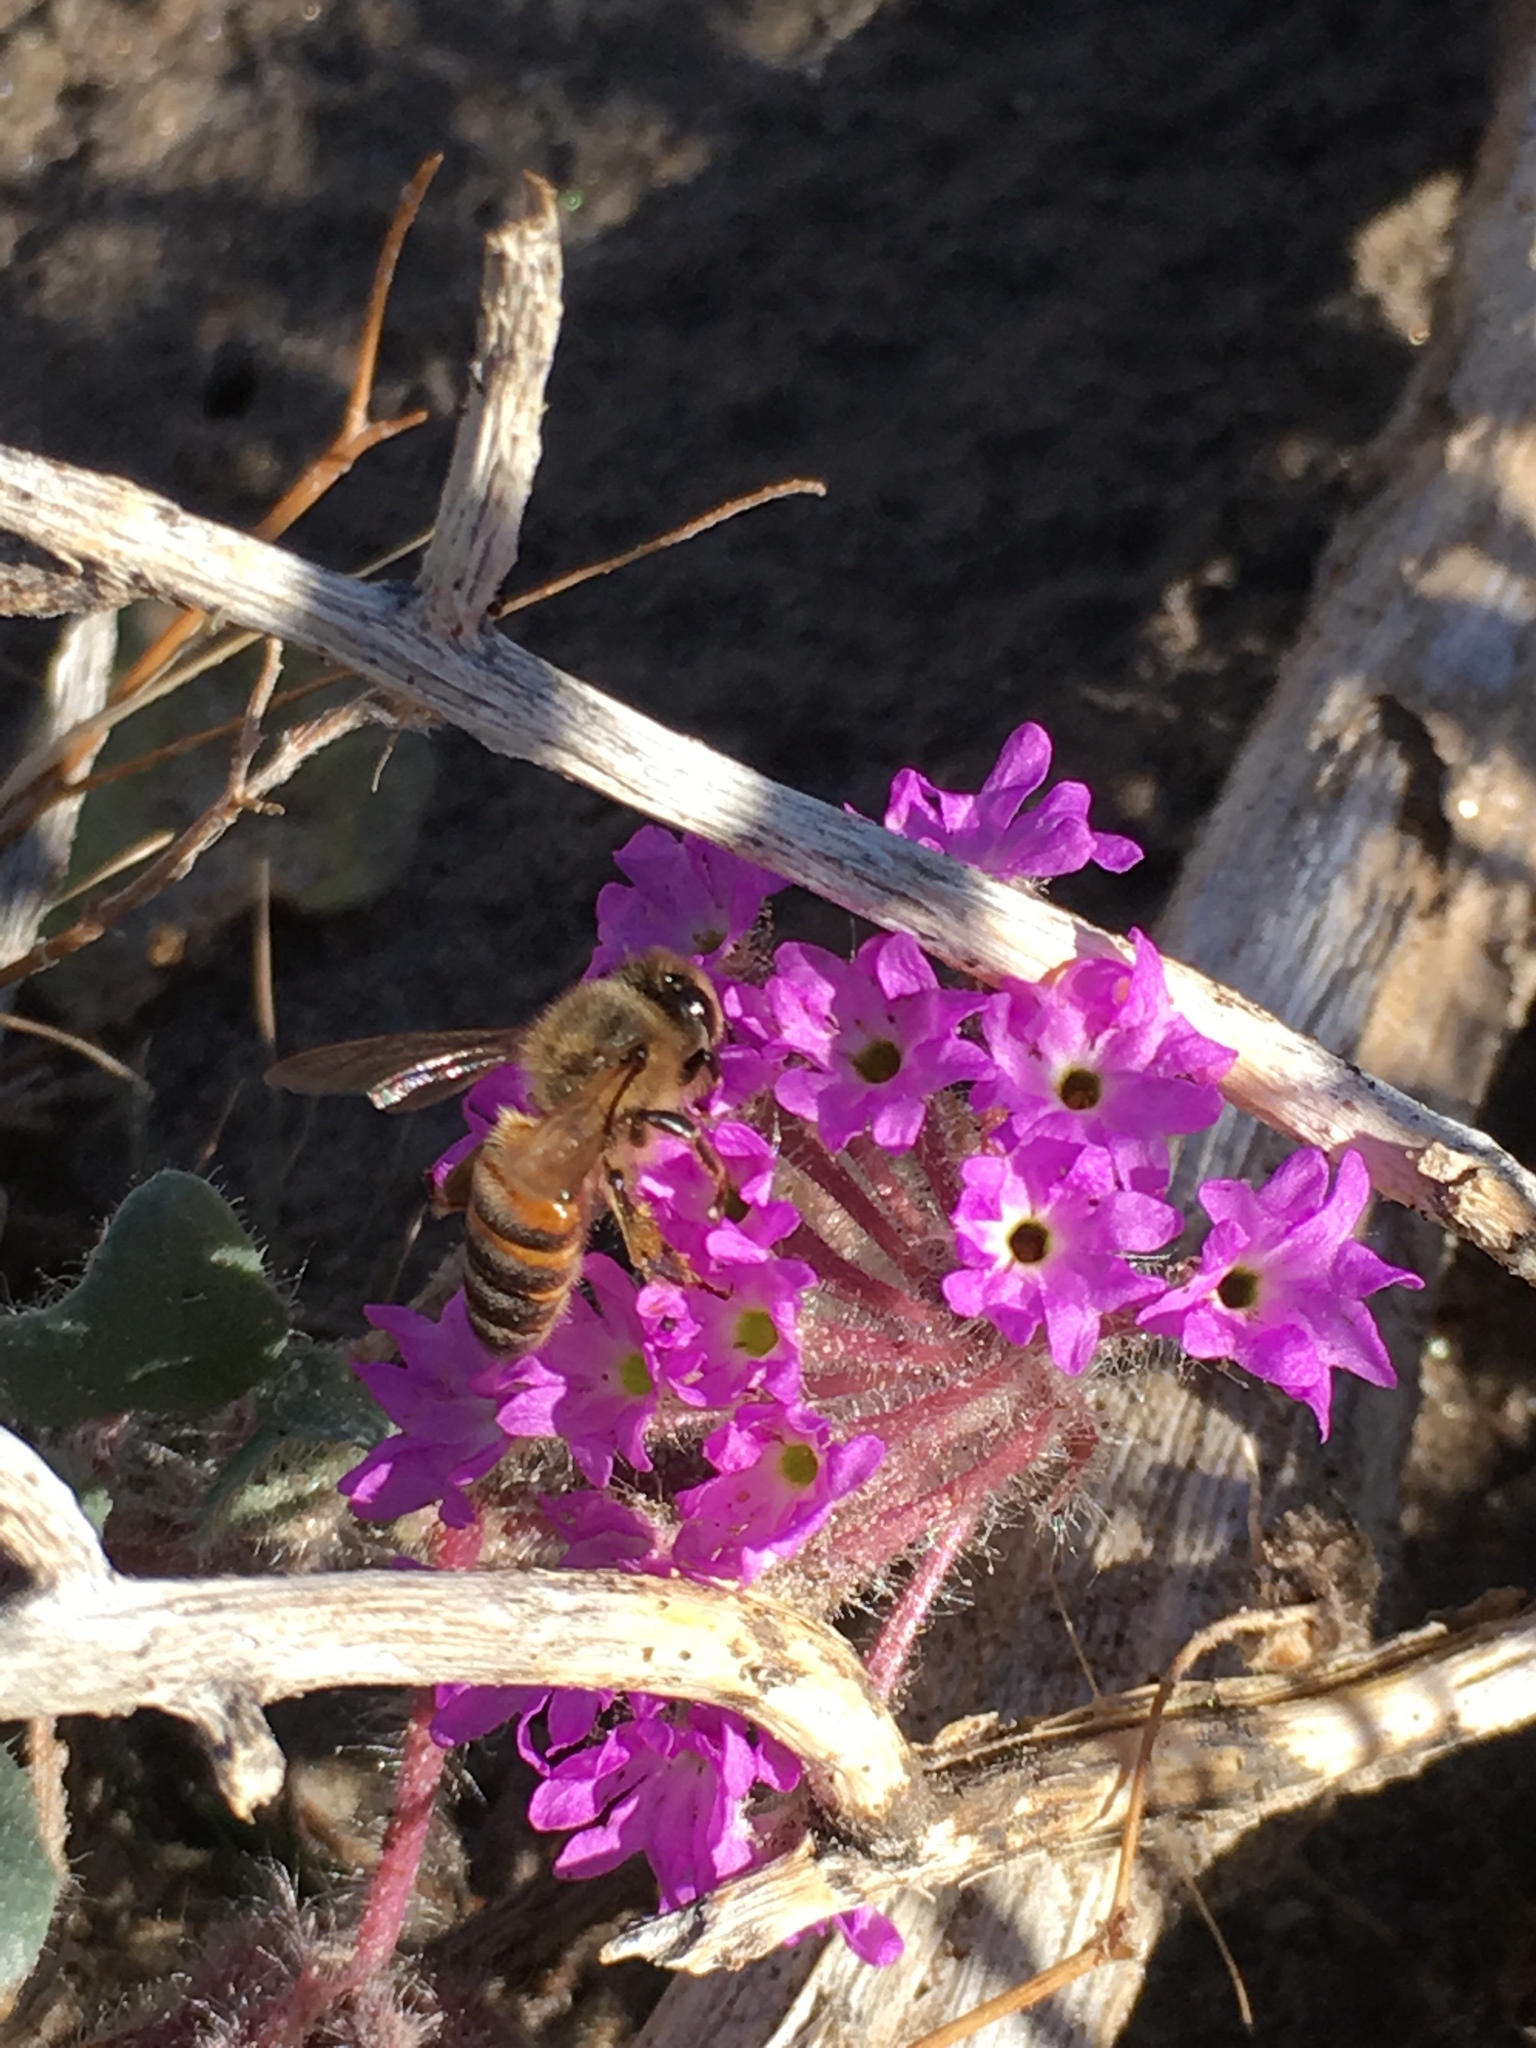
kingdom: Animalia
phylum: Arthropoda
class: Insecta
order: Hymenoptera
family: Apidae
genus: Apis
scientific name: Apis mellifera
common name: Honey bee
